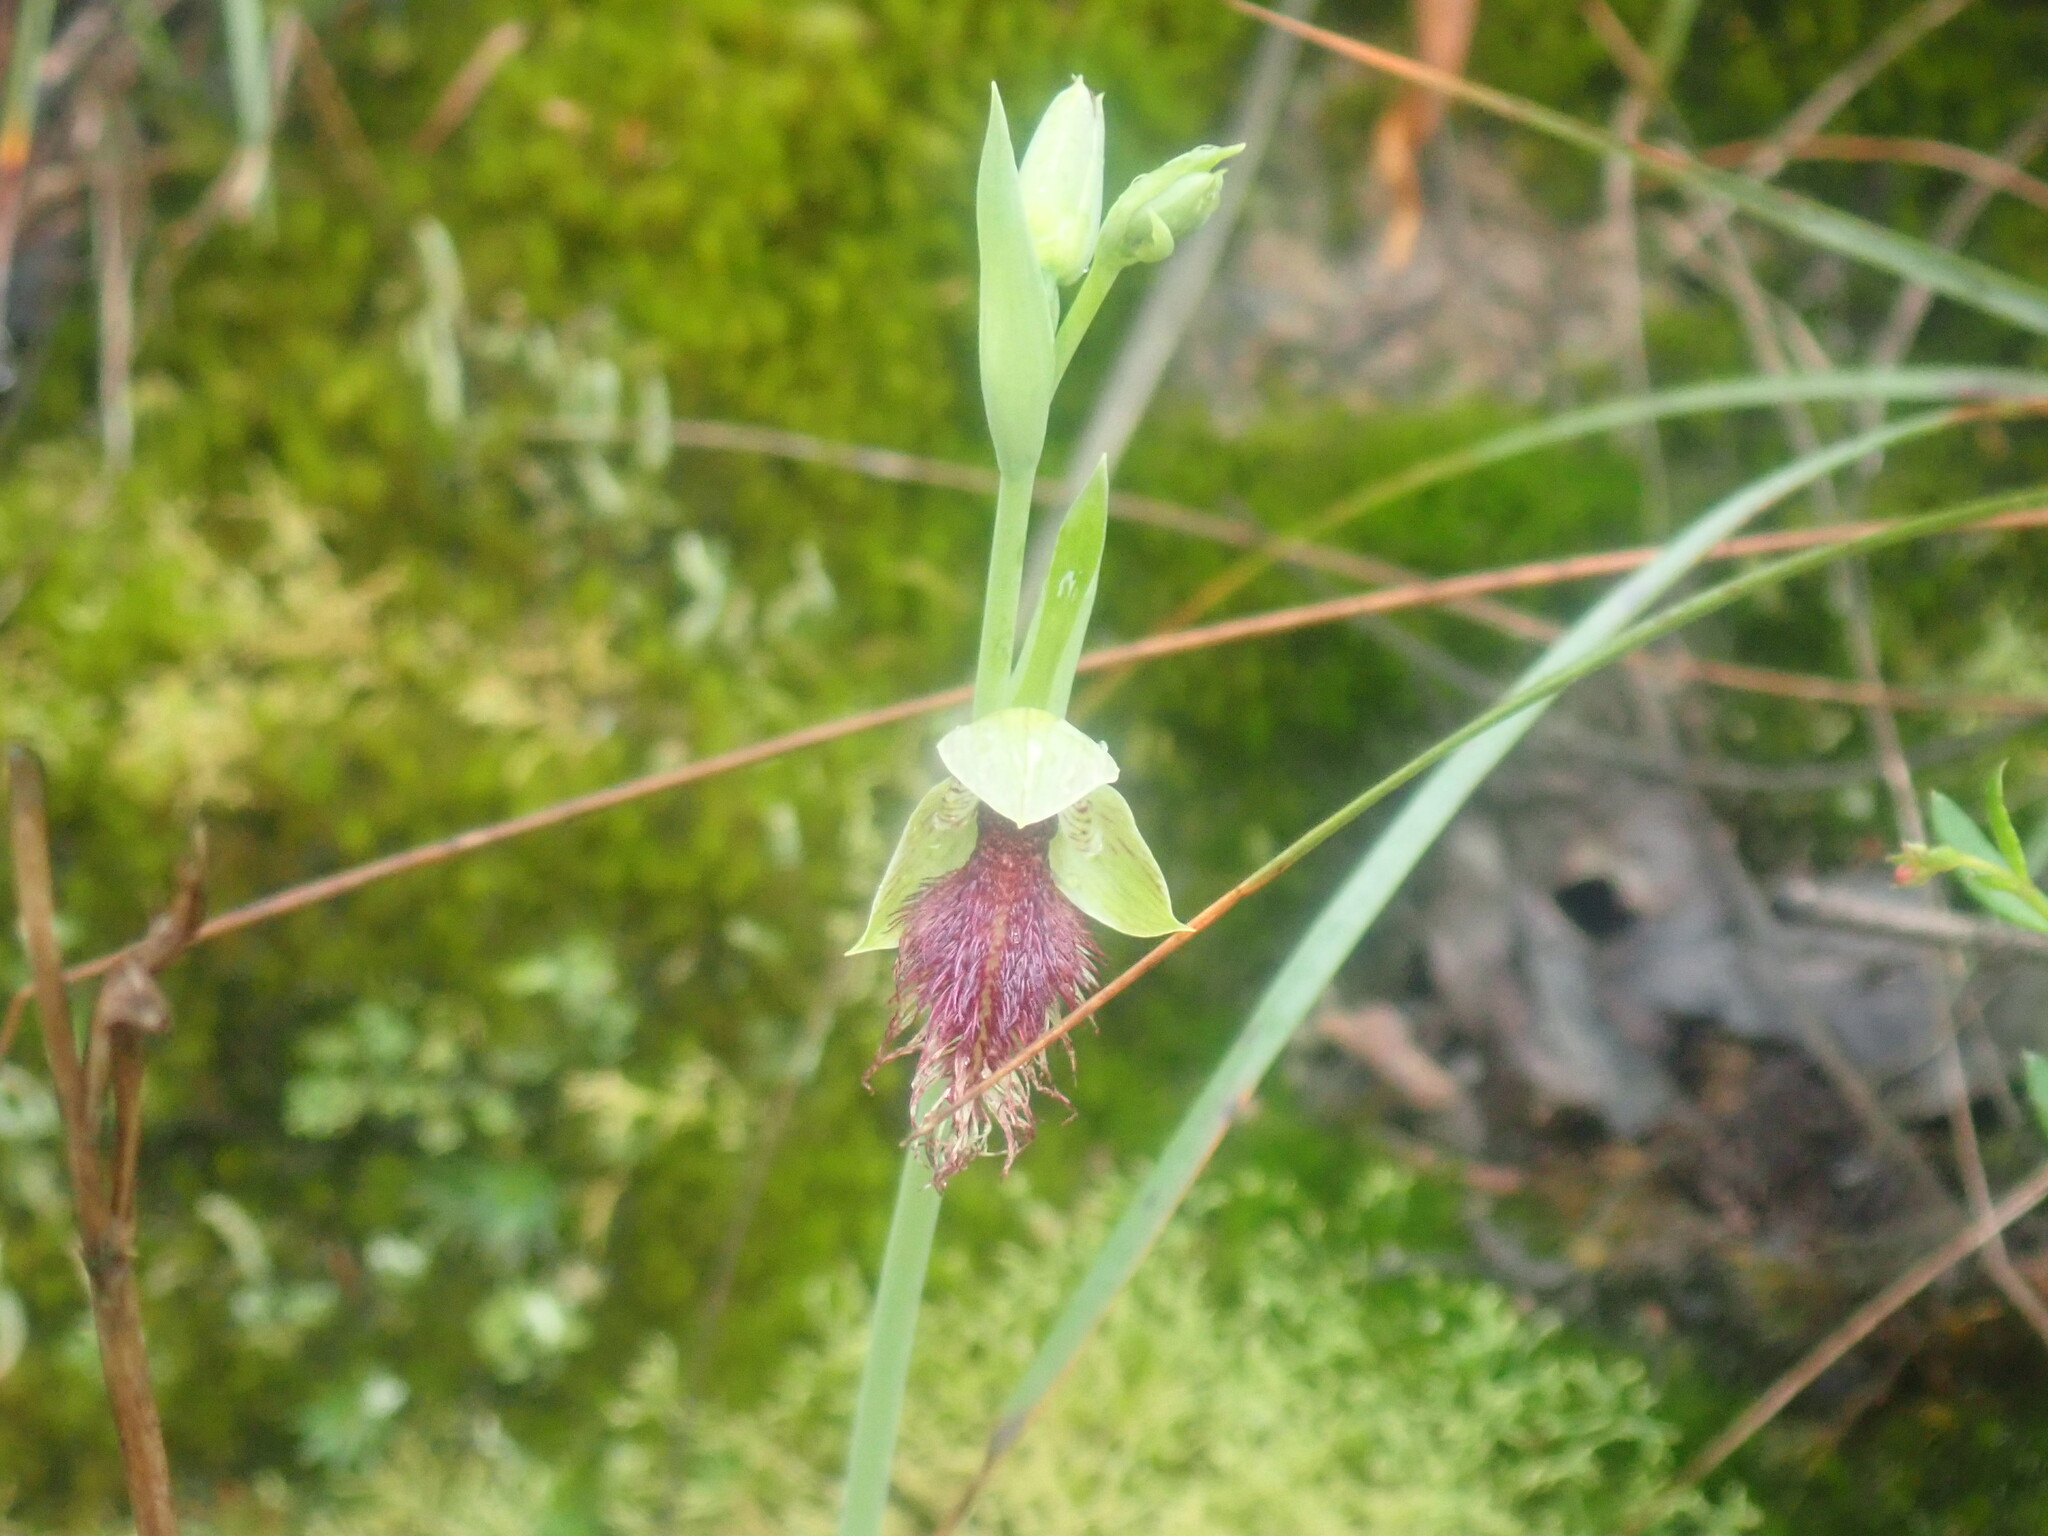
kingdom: Plantae
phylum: Tracheophyta
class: Liliopsida
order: Asparagales
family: Orchidaceae
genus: Calochilus
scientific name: Calochilus robertsonii
